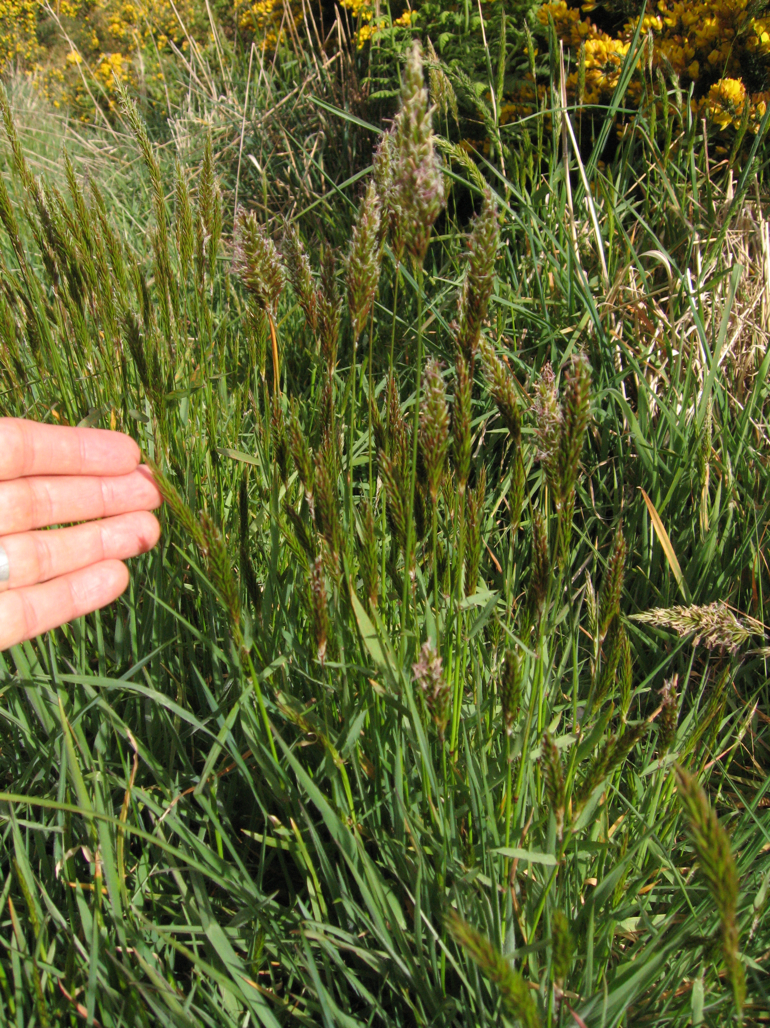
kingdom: Plantae
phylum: Tracheophyta
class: Liliopsida
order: Poales
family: Poaceae
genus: Anthoxanthum
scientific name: Anthoxanthum odoratum
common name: Sweet vernalgrass
